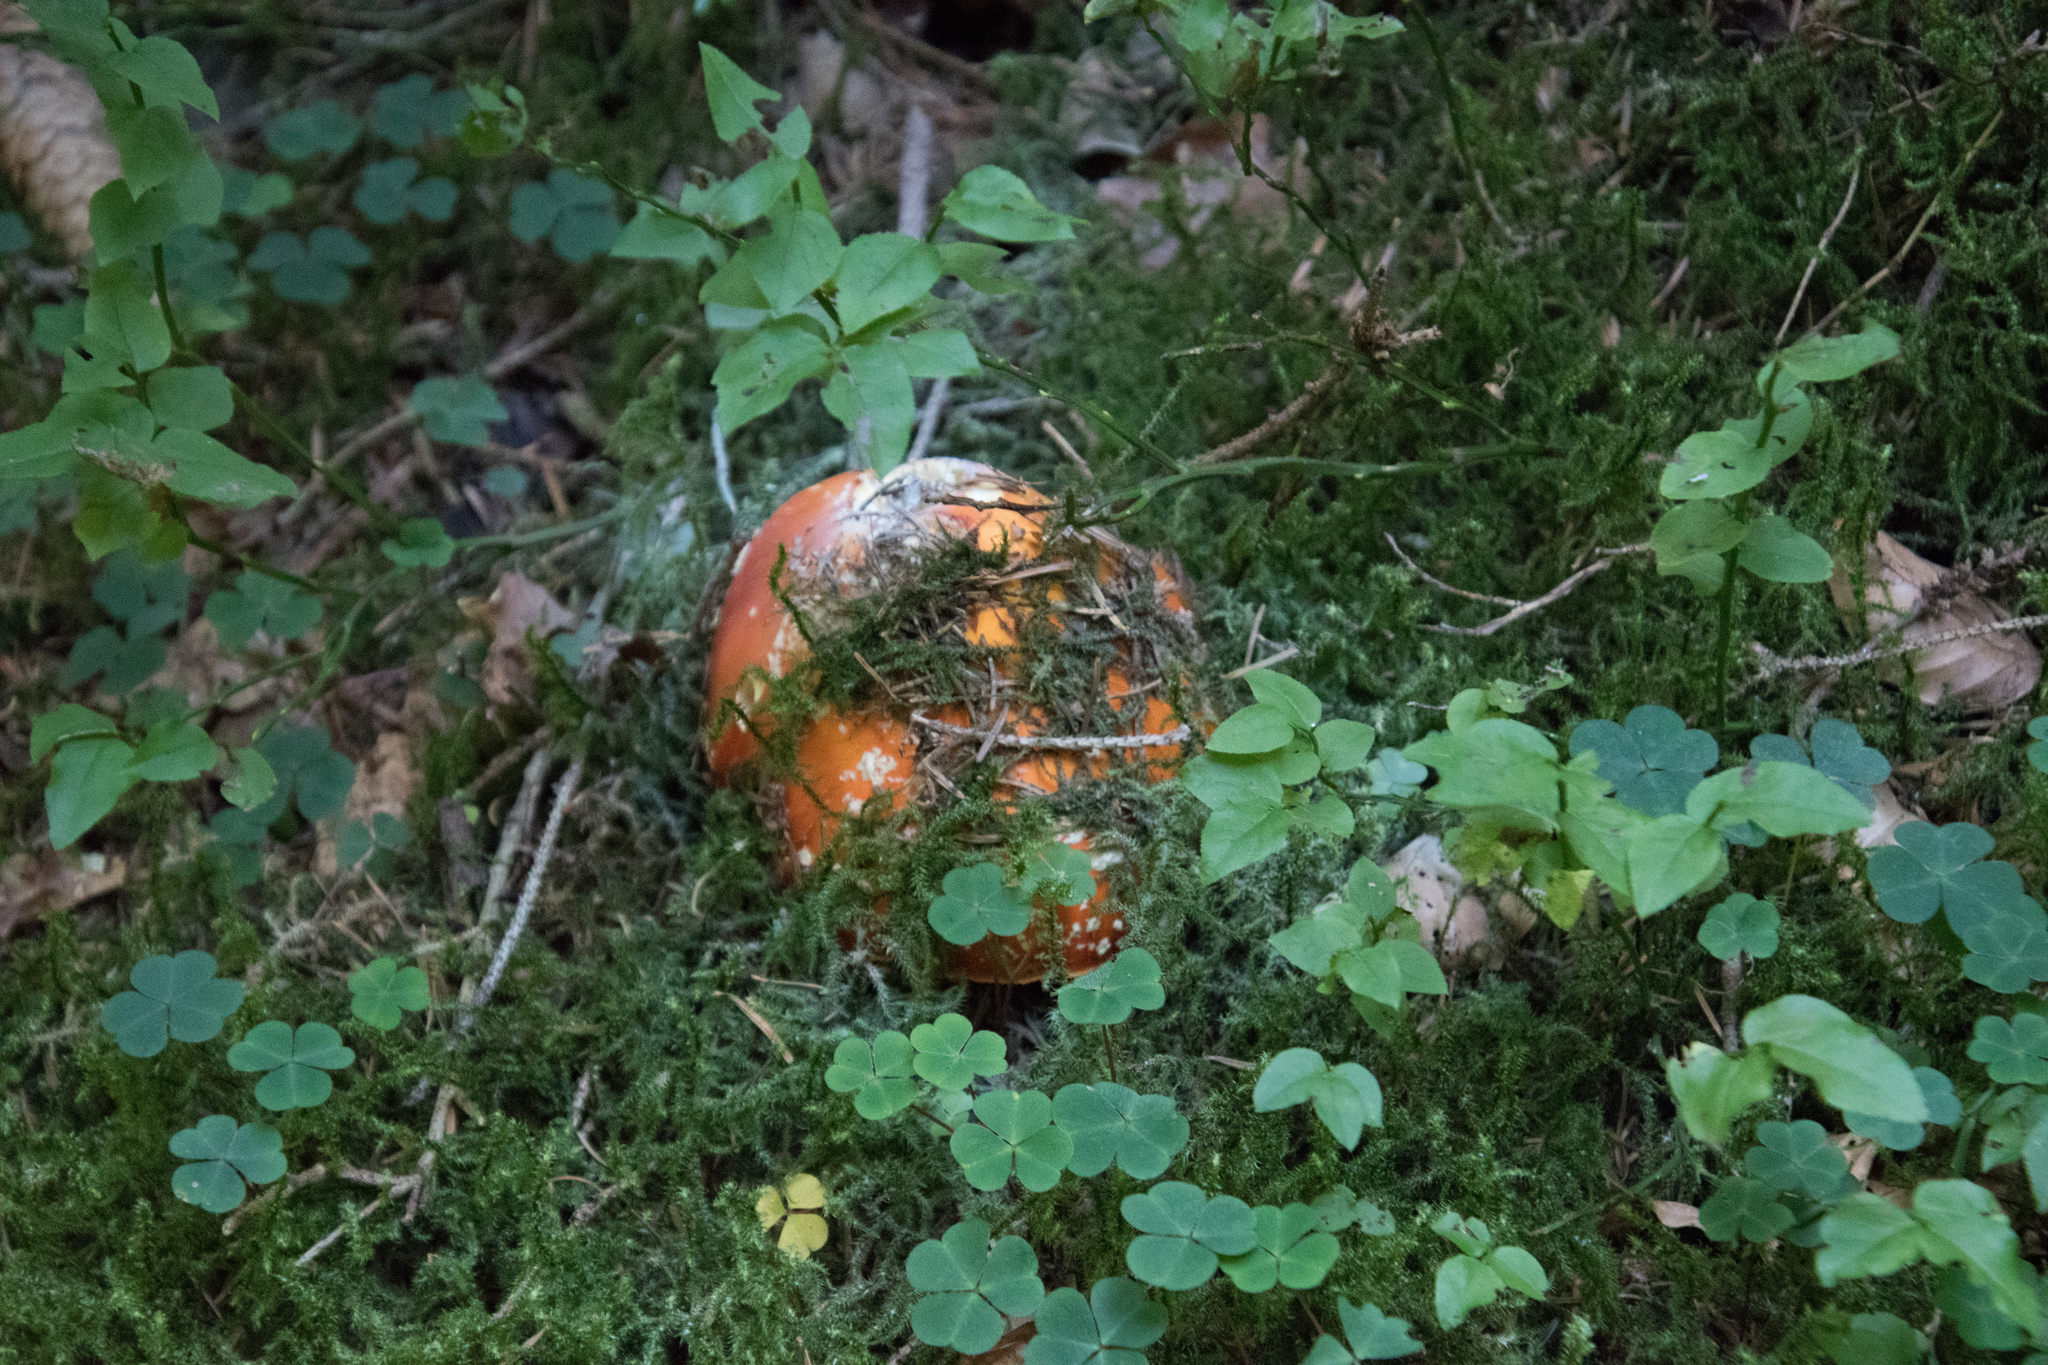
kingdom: Fungi
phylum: Basidiomycota
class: Agaricomycetes
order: Agaricales
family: Amanitaceae
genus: Amanita
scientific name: Amanita muscaria
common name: Fly agaric
